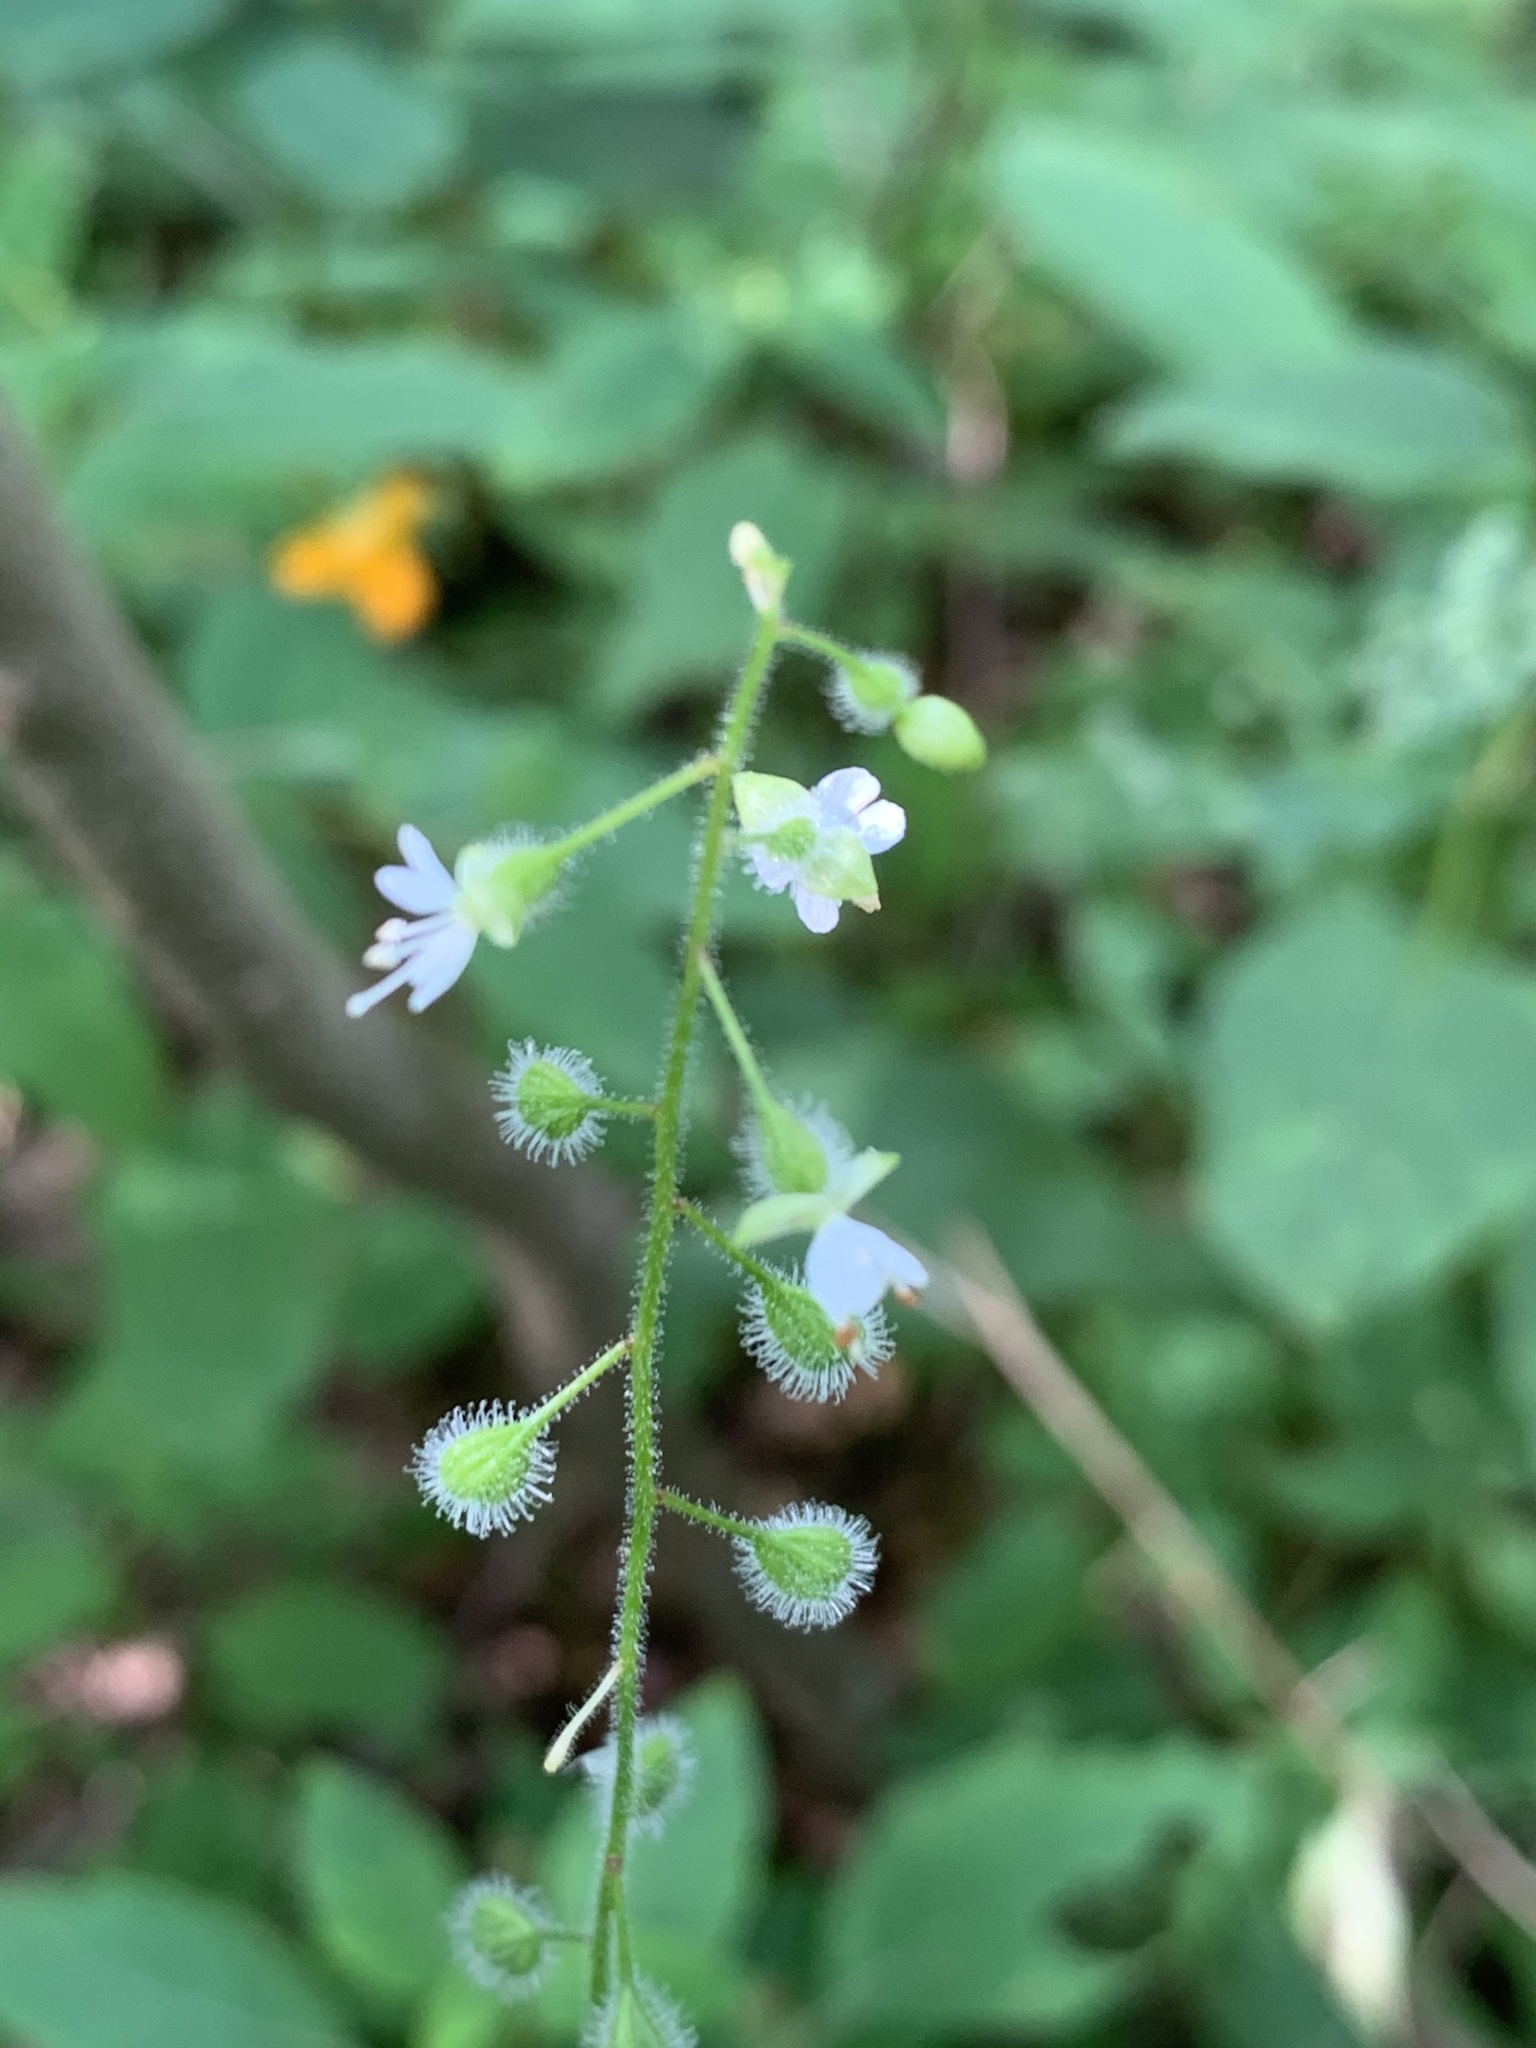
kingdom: Plantae
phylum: Tracheophyta
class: Magnoliopsida
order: Myrtales
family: Onagraceae
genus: Circaea
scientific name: Circaea canadensis
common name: Broad-leaved enchanter's nightshade
